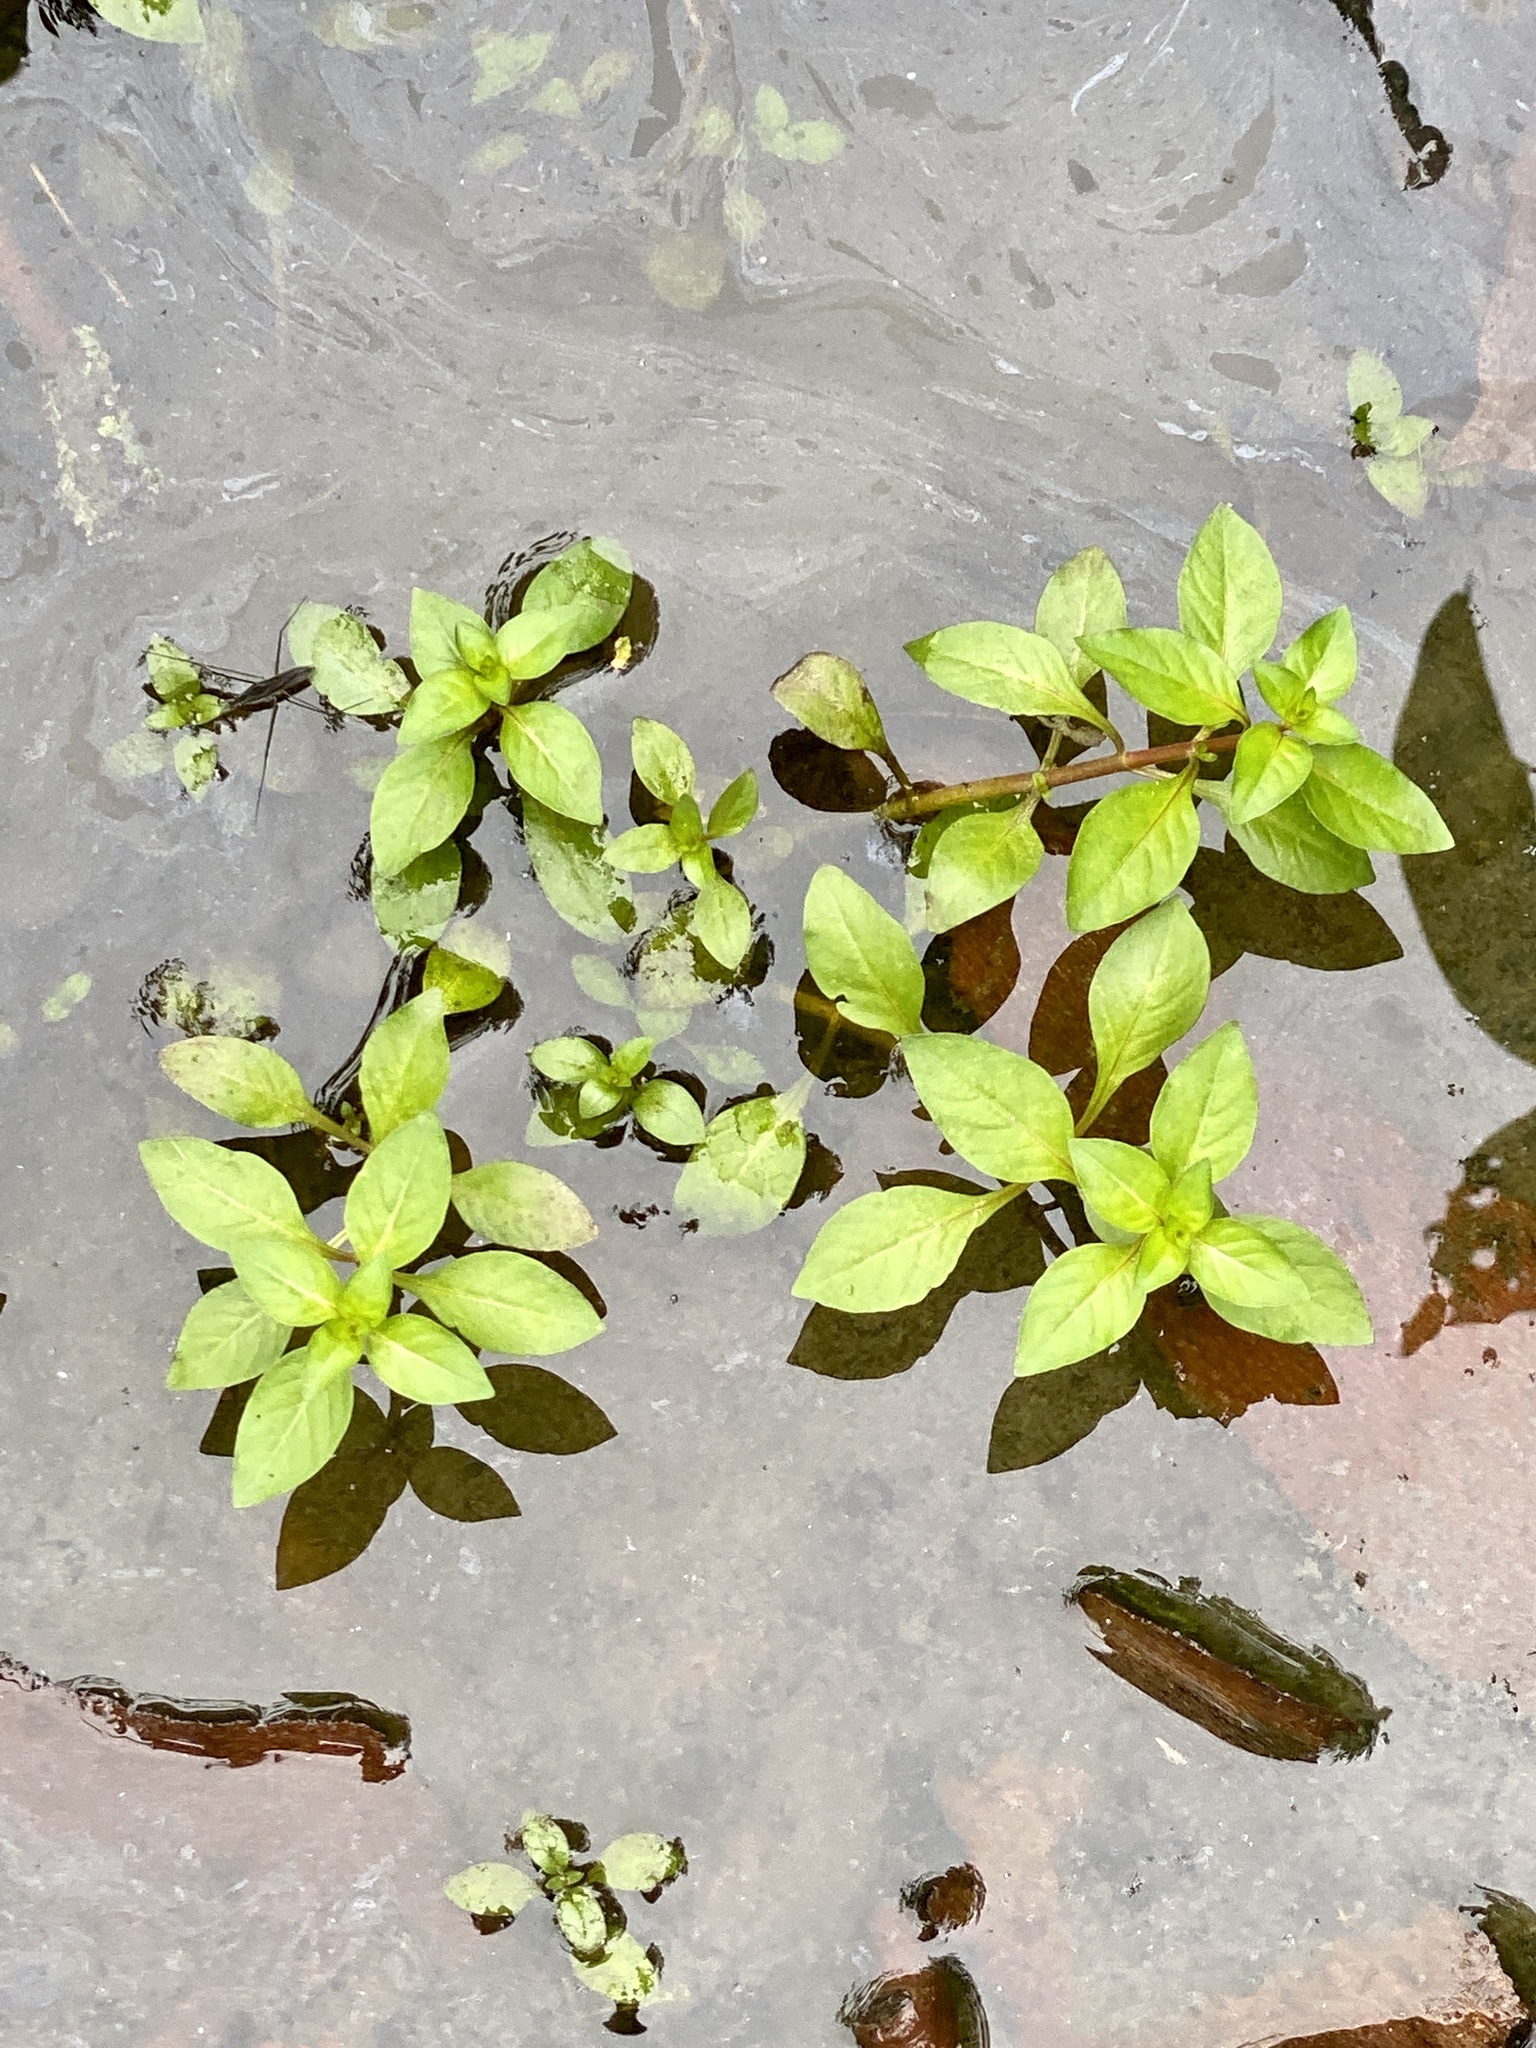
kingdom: Plantae
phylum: Tracheophyta
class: Magnoliopsida
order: Myrtales
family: Onagraceae
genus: Ludwigia
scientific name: Ludwigia palustris
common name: Hampshire-purslane
